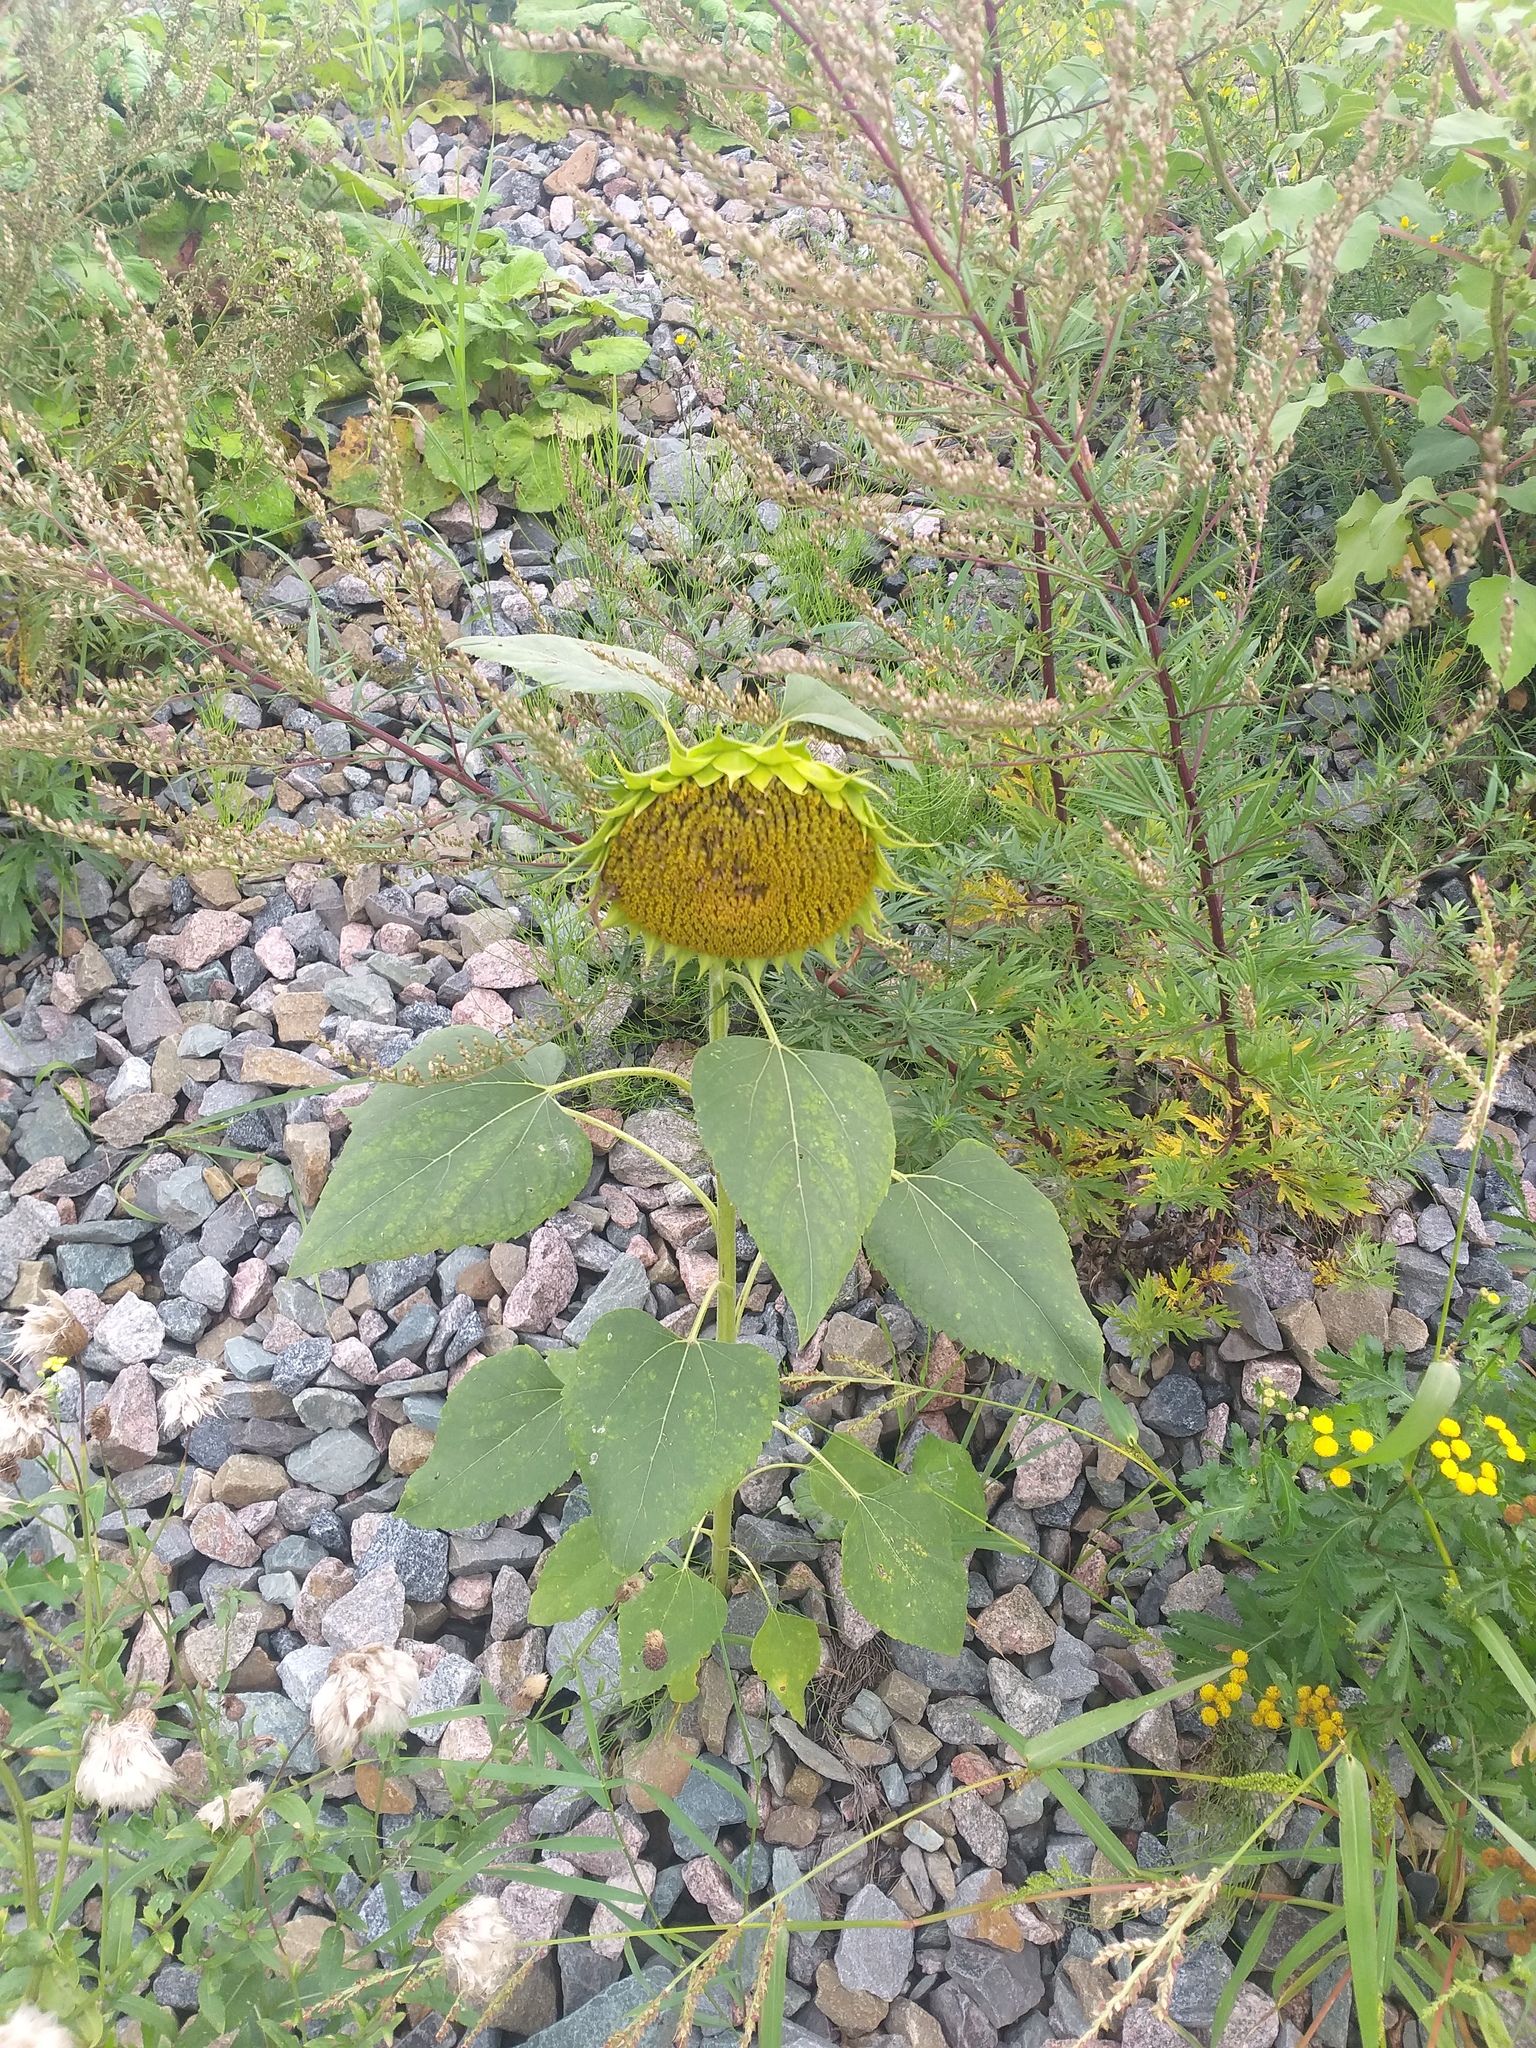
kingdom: Plantae
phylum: Tracheophyta
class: Magnoliopsida
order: Asterales
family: Asteraceae
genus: Helianthus
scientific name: Helianthus annuus
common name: Sunflower
